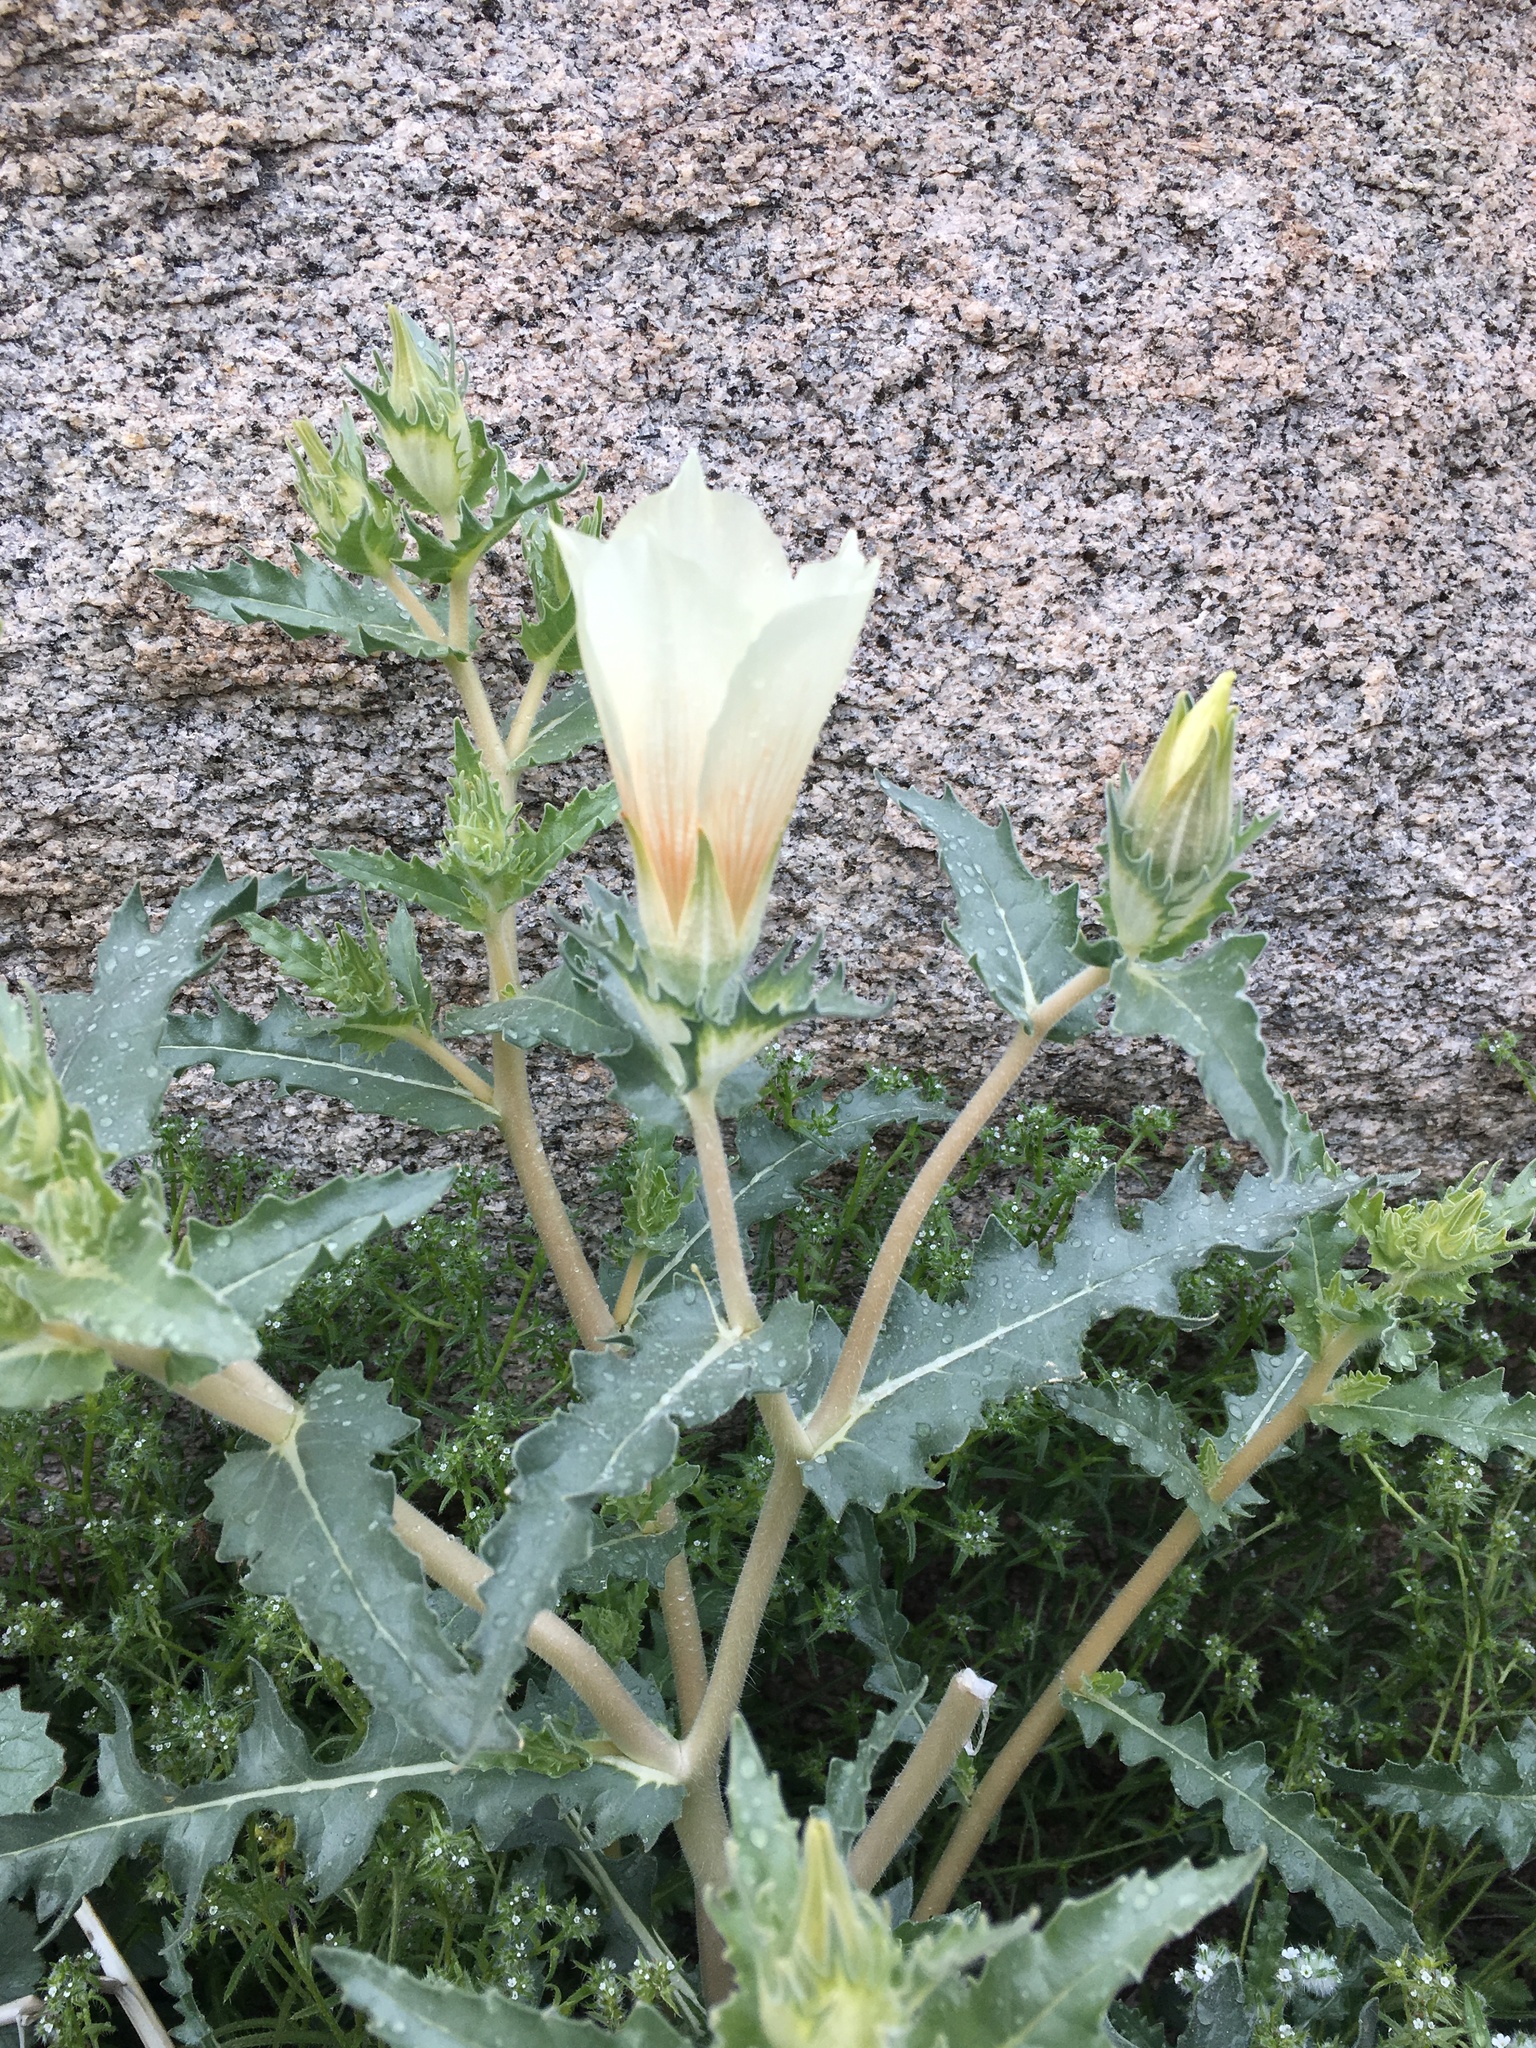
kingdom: Plantae
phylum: Tracheophyta
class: Magnoliopsida
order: Cornales
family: Loasaceae
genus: Mentzelia
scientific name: Mentzelia involucrata
